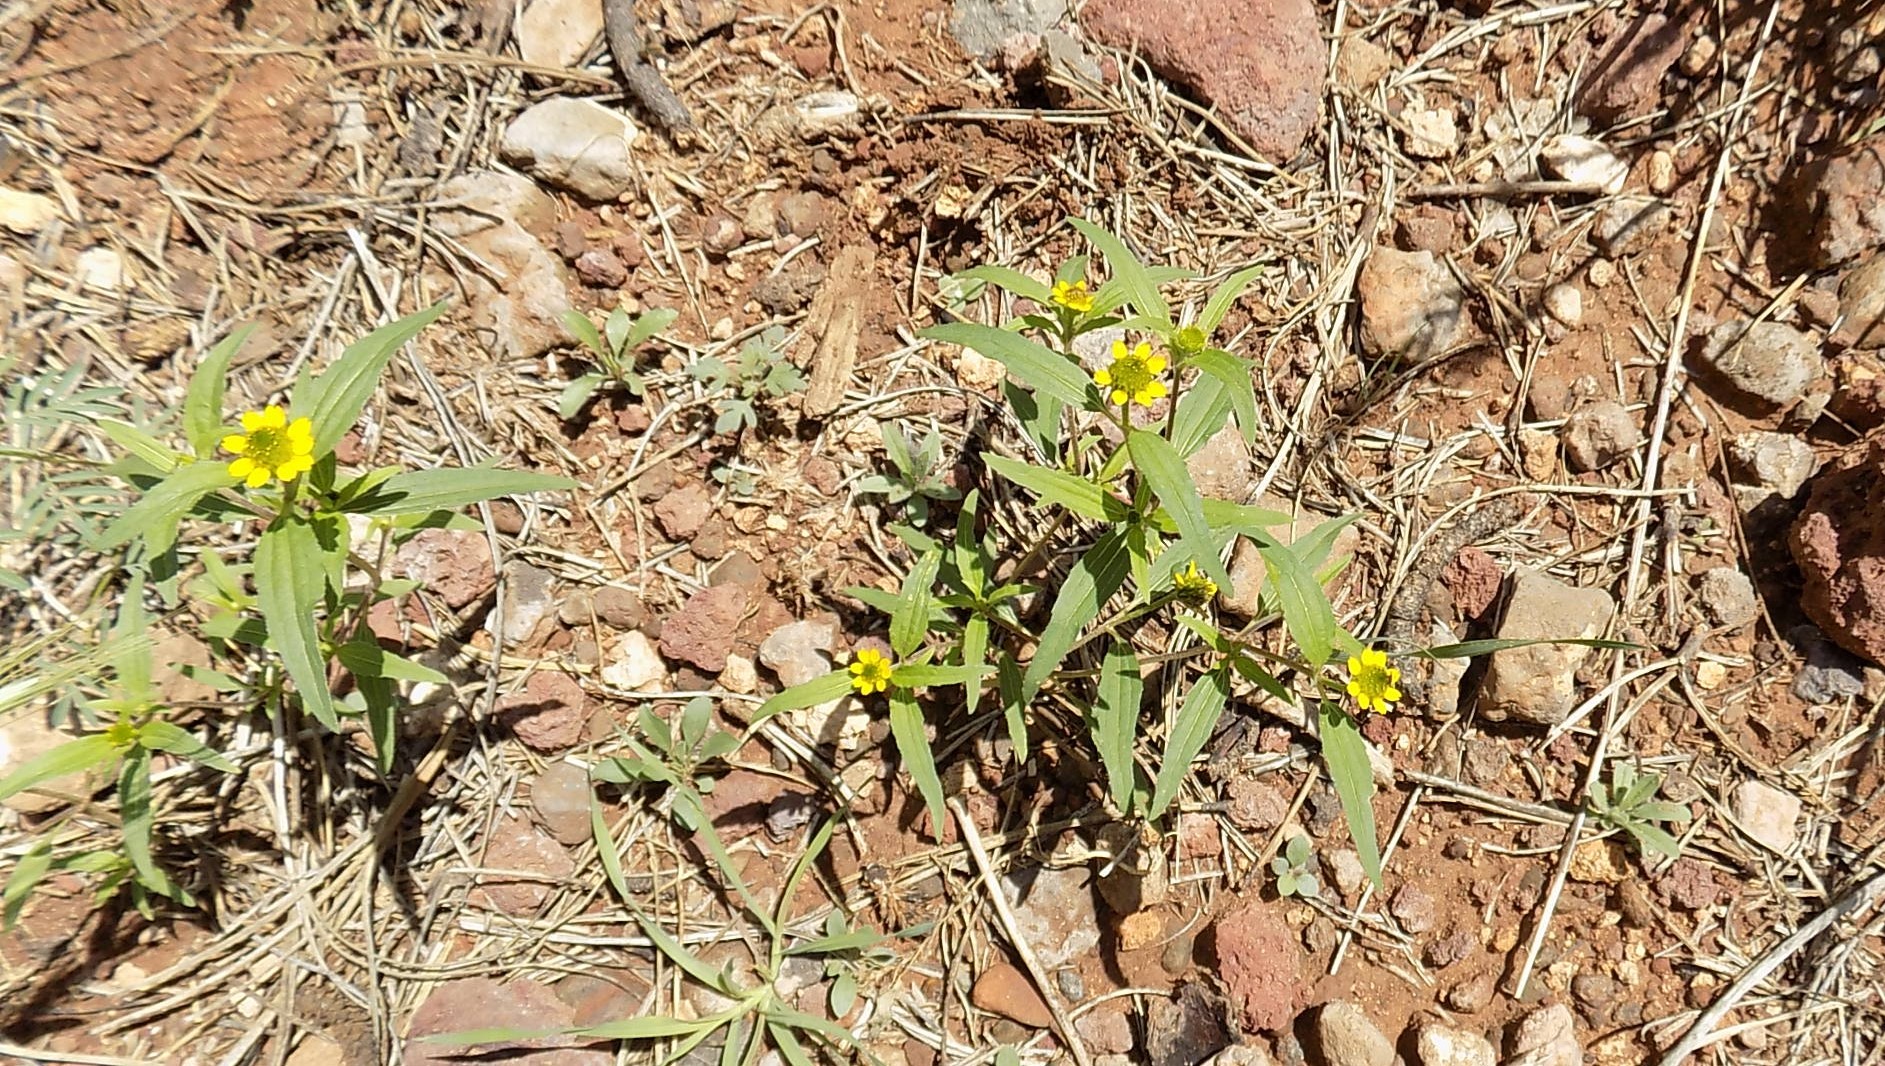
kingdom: Plantae
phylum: Tracheophyta
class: Magnoliopsida
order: Asterales
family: Asteraceae
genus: Sanvitalia
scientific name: Sanvitalia abertii
